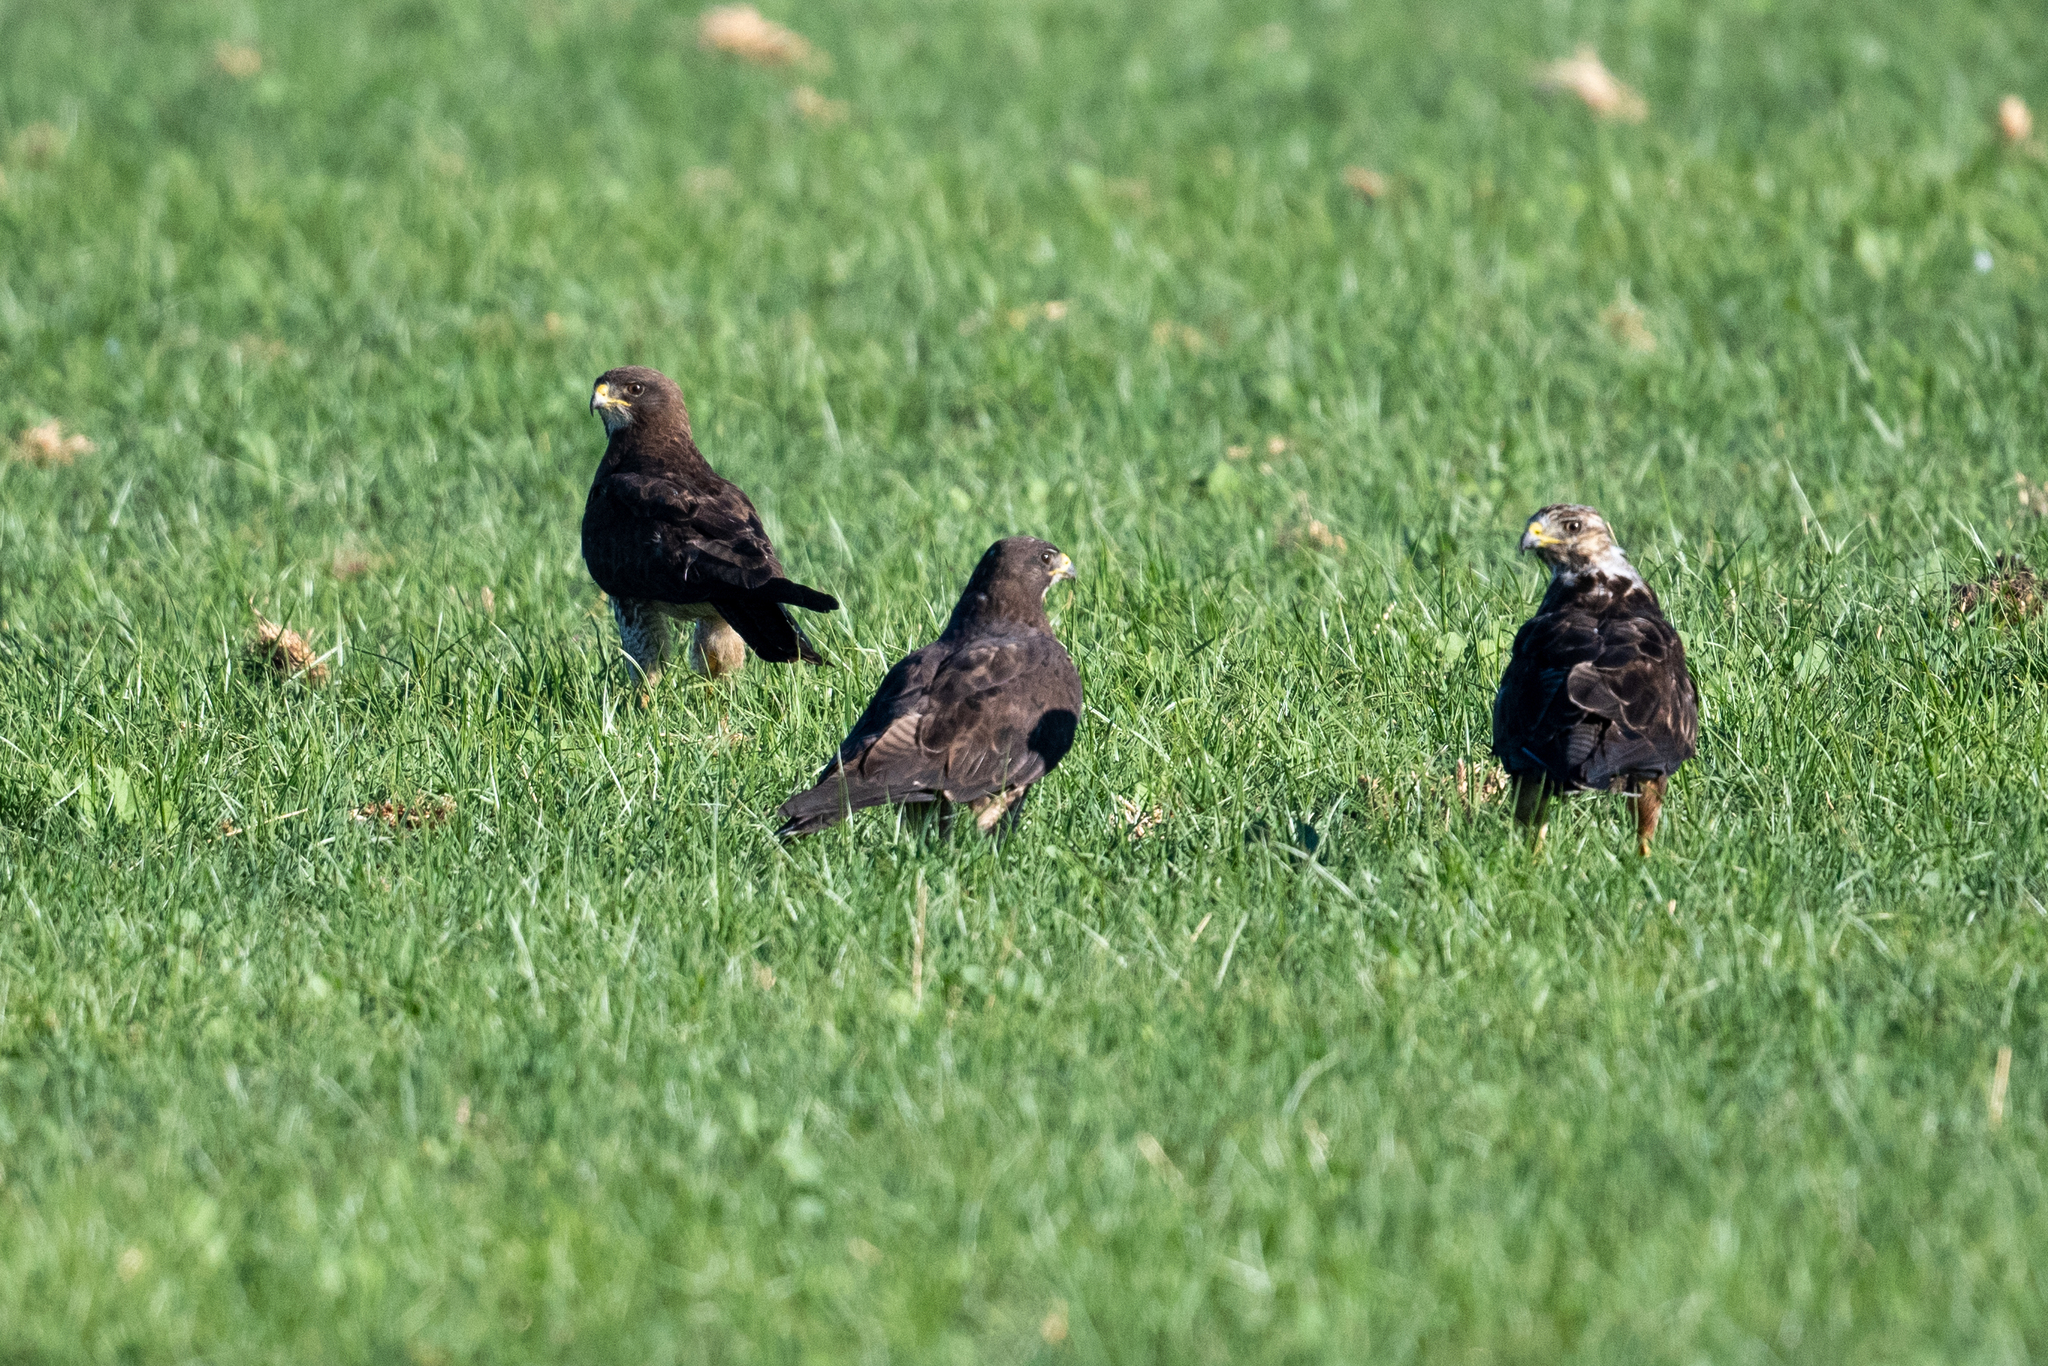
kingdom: Animalia
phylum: Chordata
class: Aves
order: Accipitriformes
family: Accipitridae
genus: Buteo
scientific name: Buteo swainsoni
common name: Swainson's hawk
